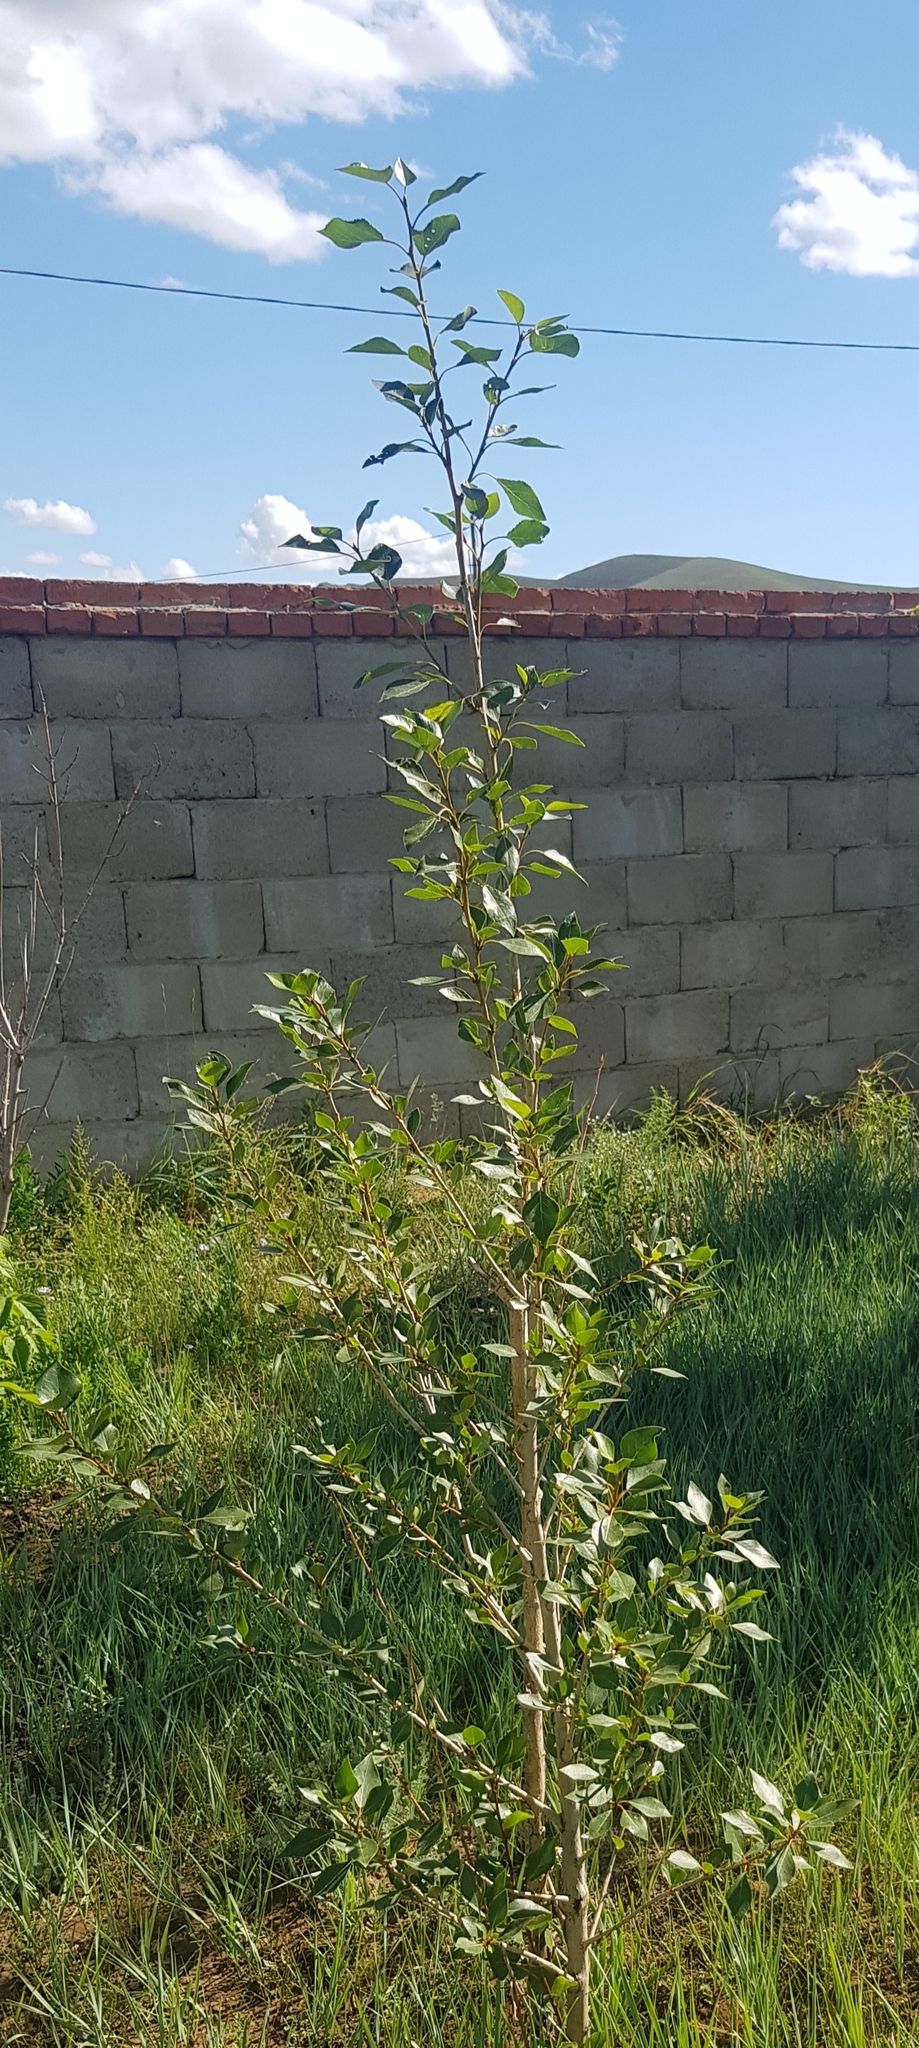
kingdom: Plantae
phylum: Tracheophyta
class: Magnoliopsida
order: Malpighiales
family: Salicaceae
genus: Populus
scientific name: Populus suaveolens
